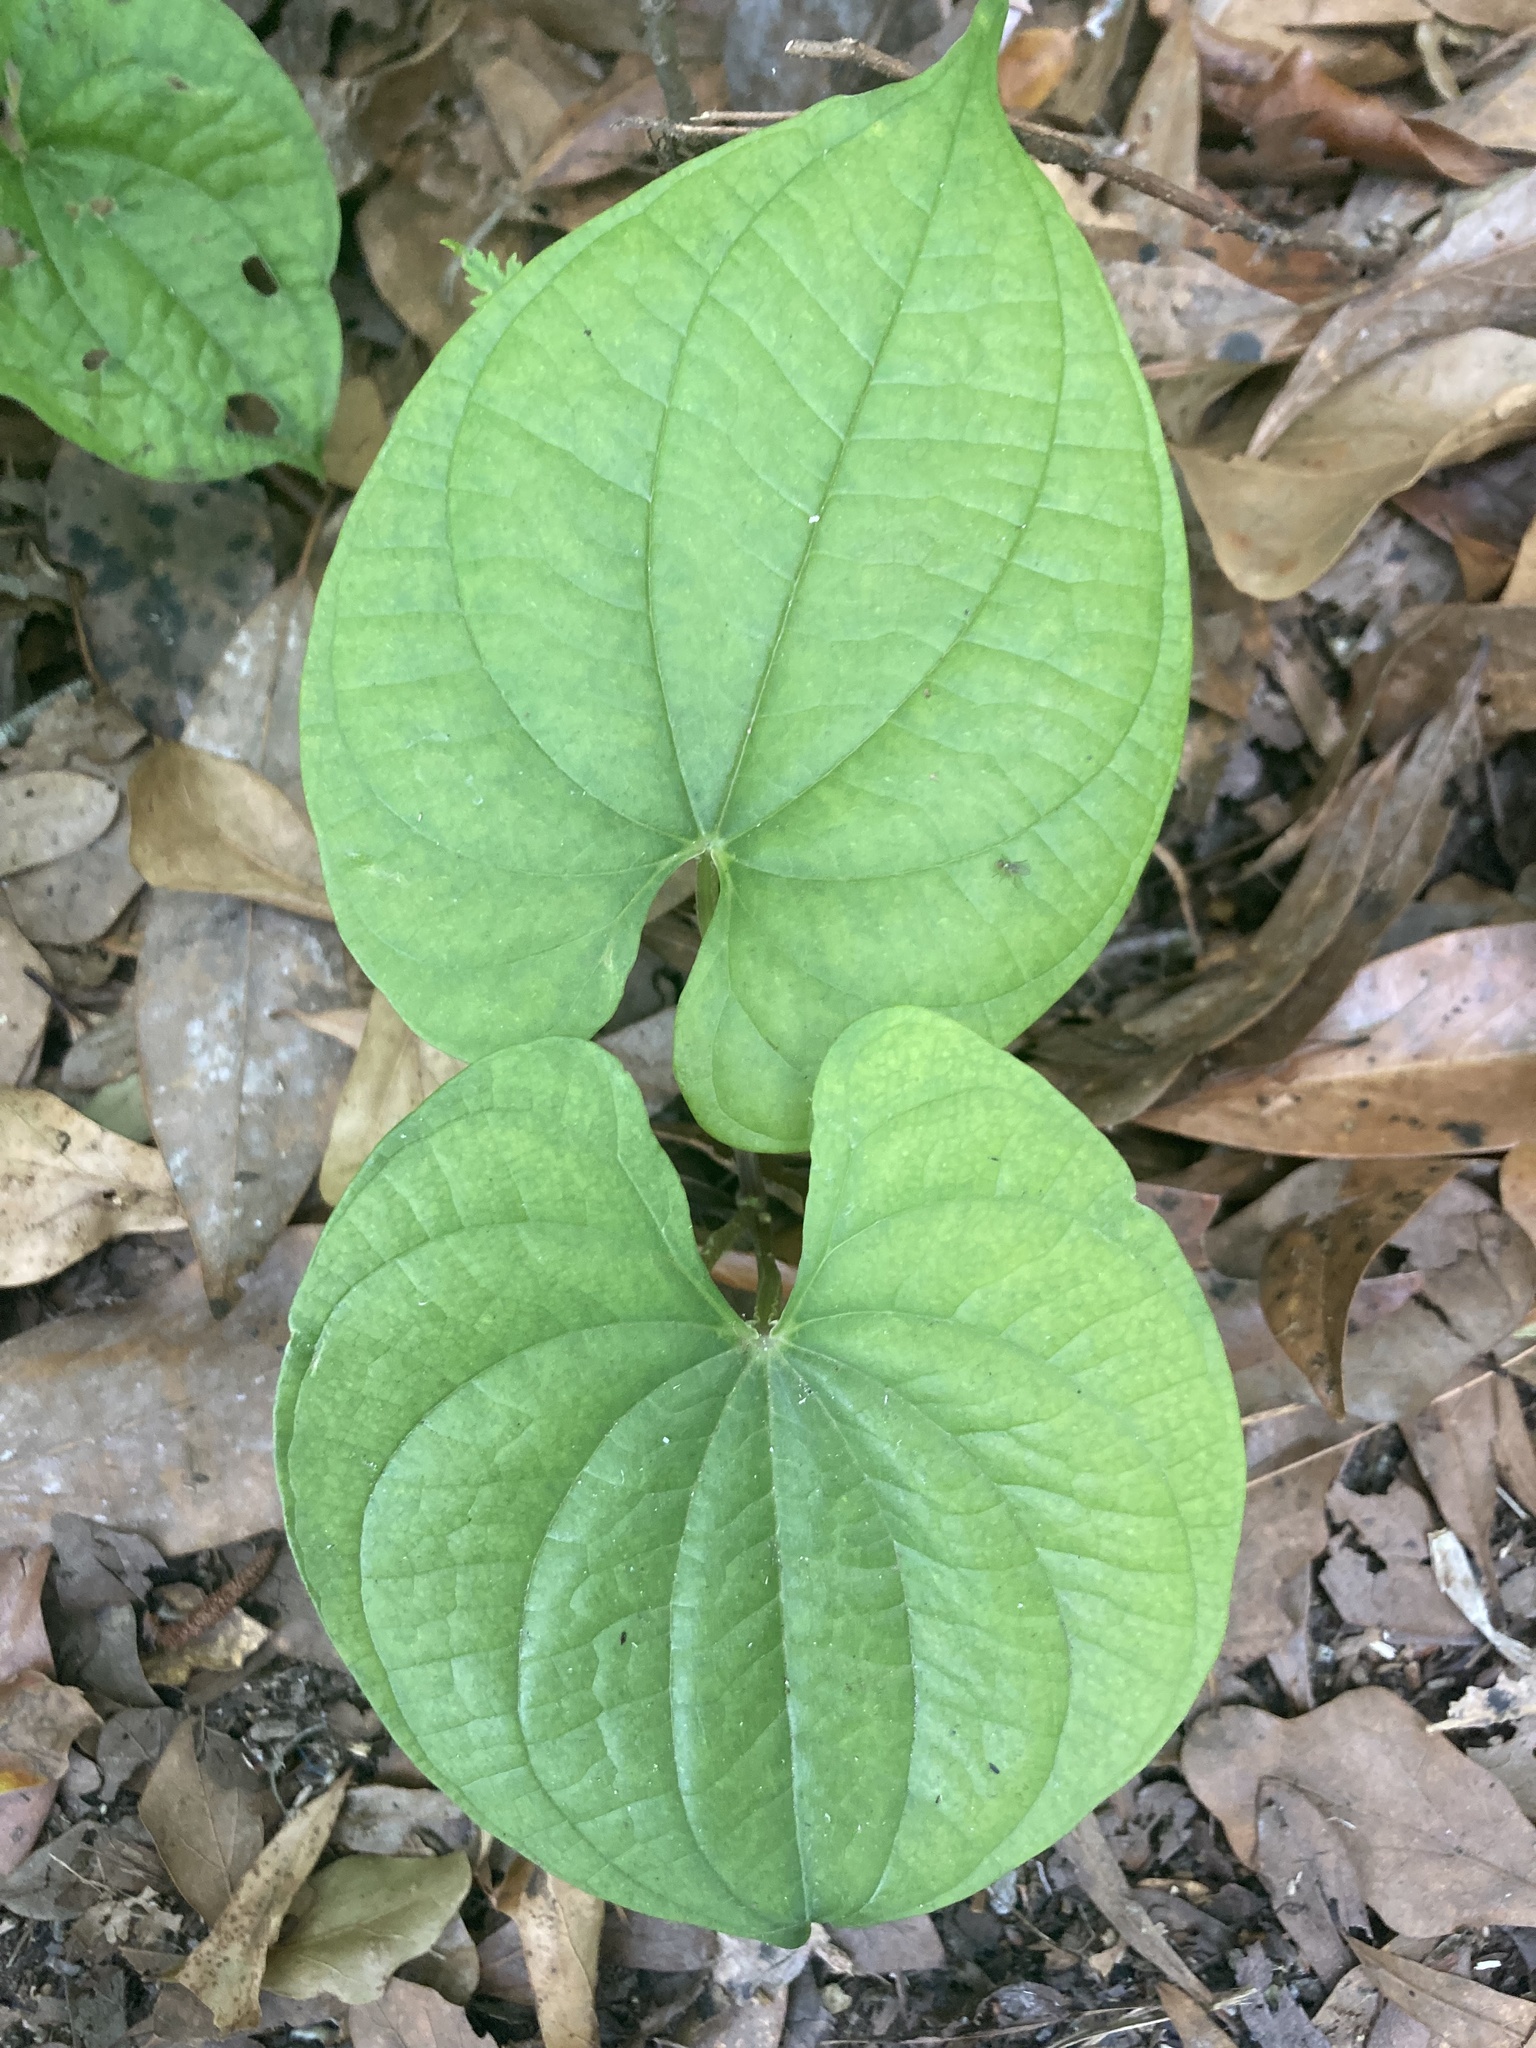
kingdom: Plantae
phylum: Tracheophyta
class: Liliopsida
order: Dioscoreales
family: Dioscoreaceae
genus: Dioscorea
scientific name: Dioscorea bulbifera
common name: Air yam
